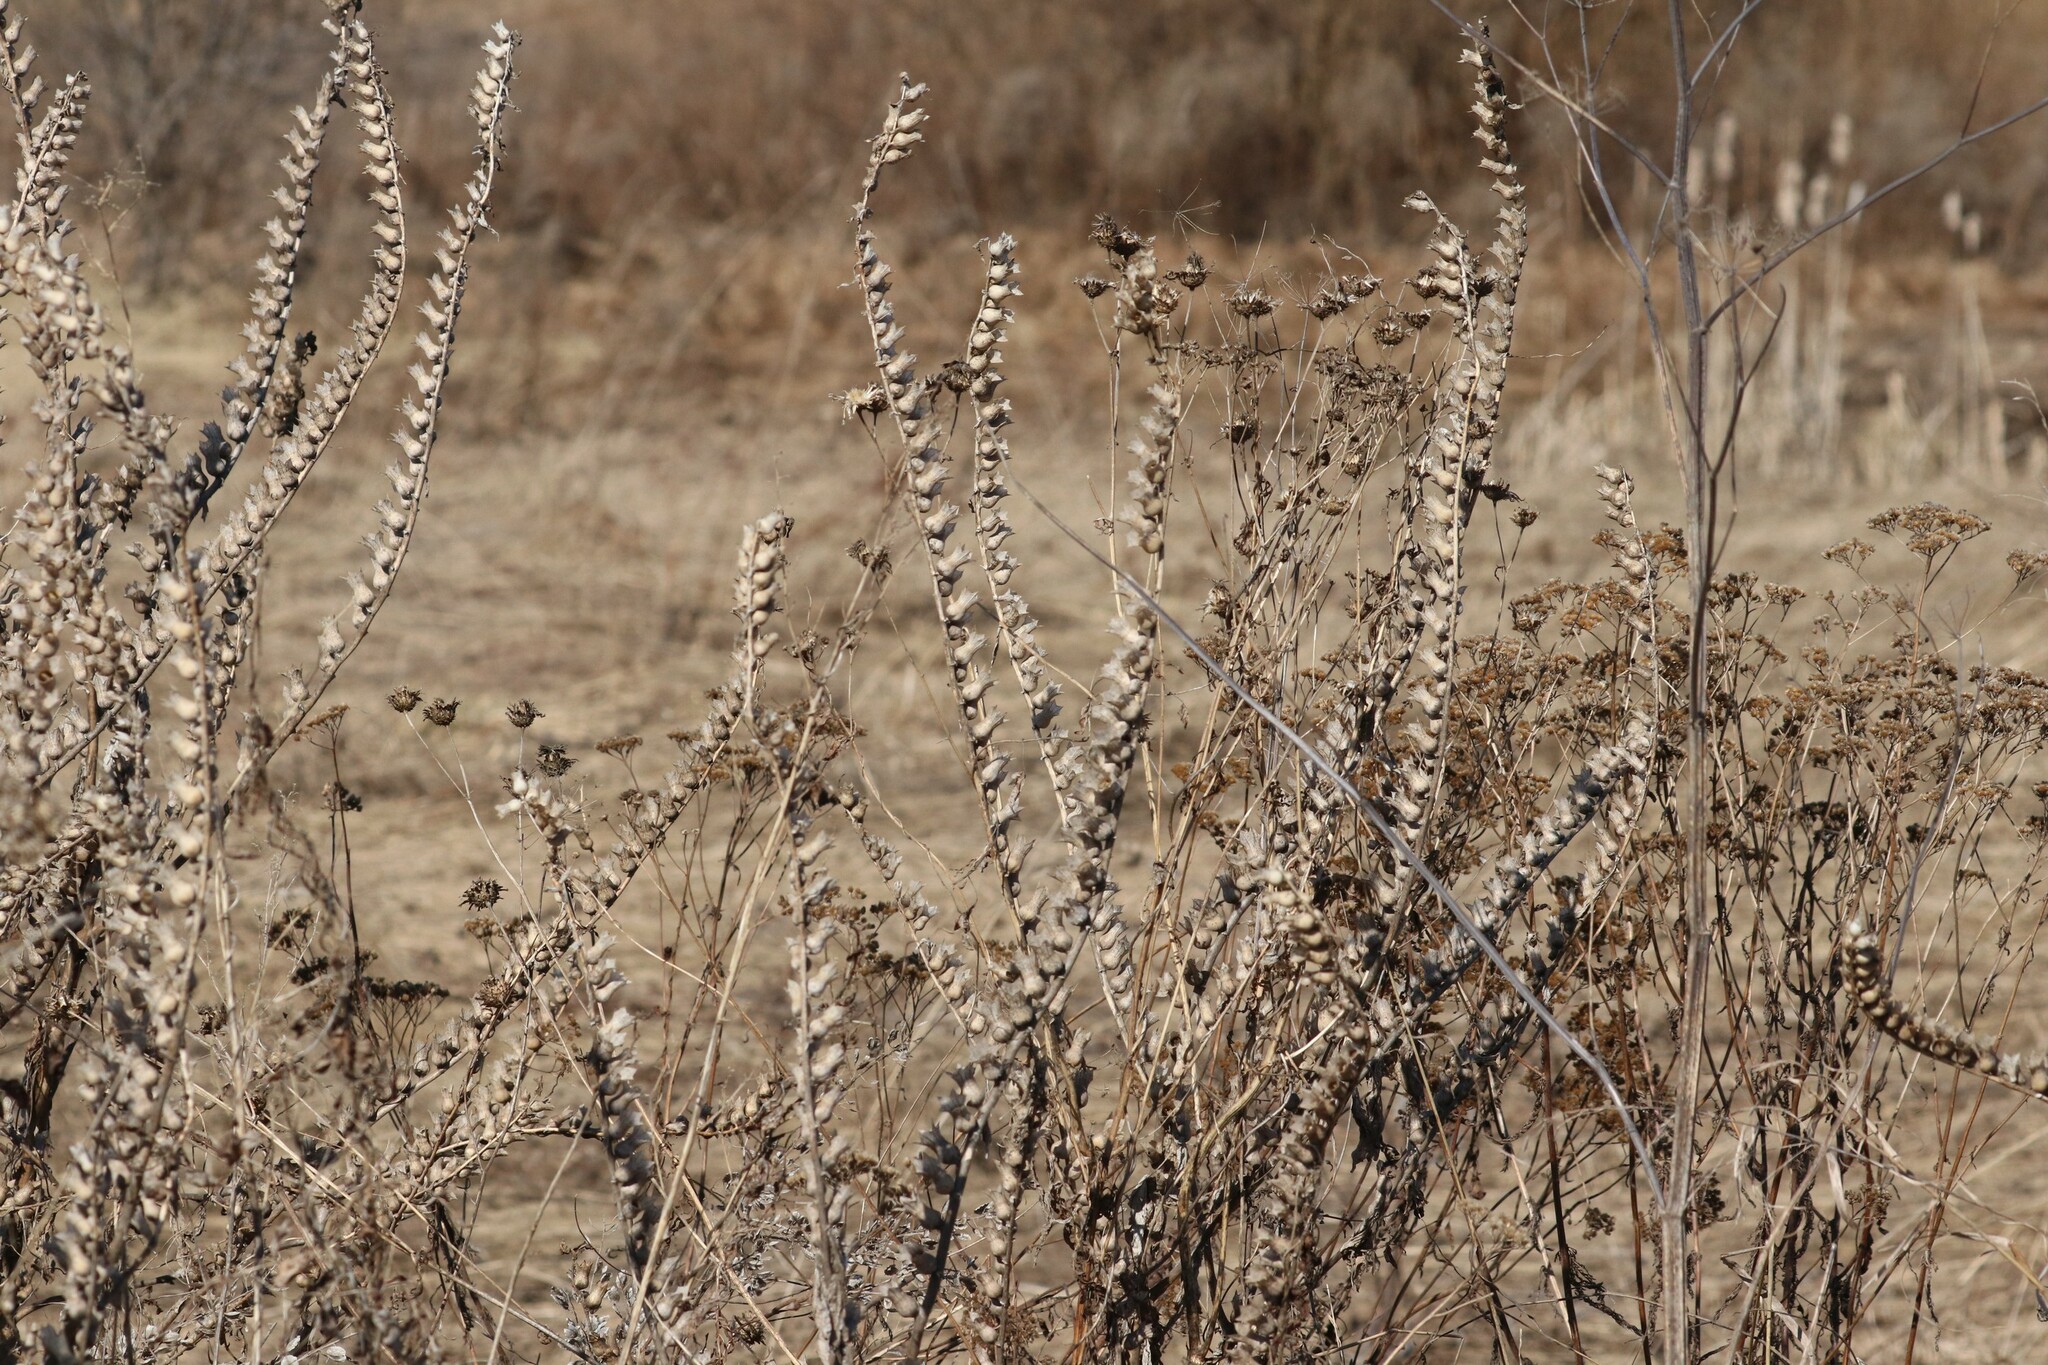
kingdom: Plantae
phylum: Tracheophyta
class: Magnoliopsida
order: Solanales
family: Solanaceae
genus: Hyoscyamus
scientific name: Hyoscyamus niger
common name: Henbane
